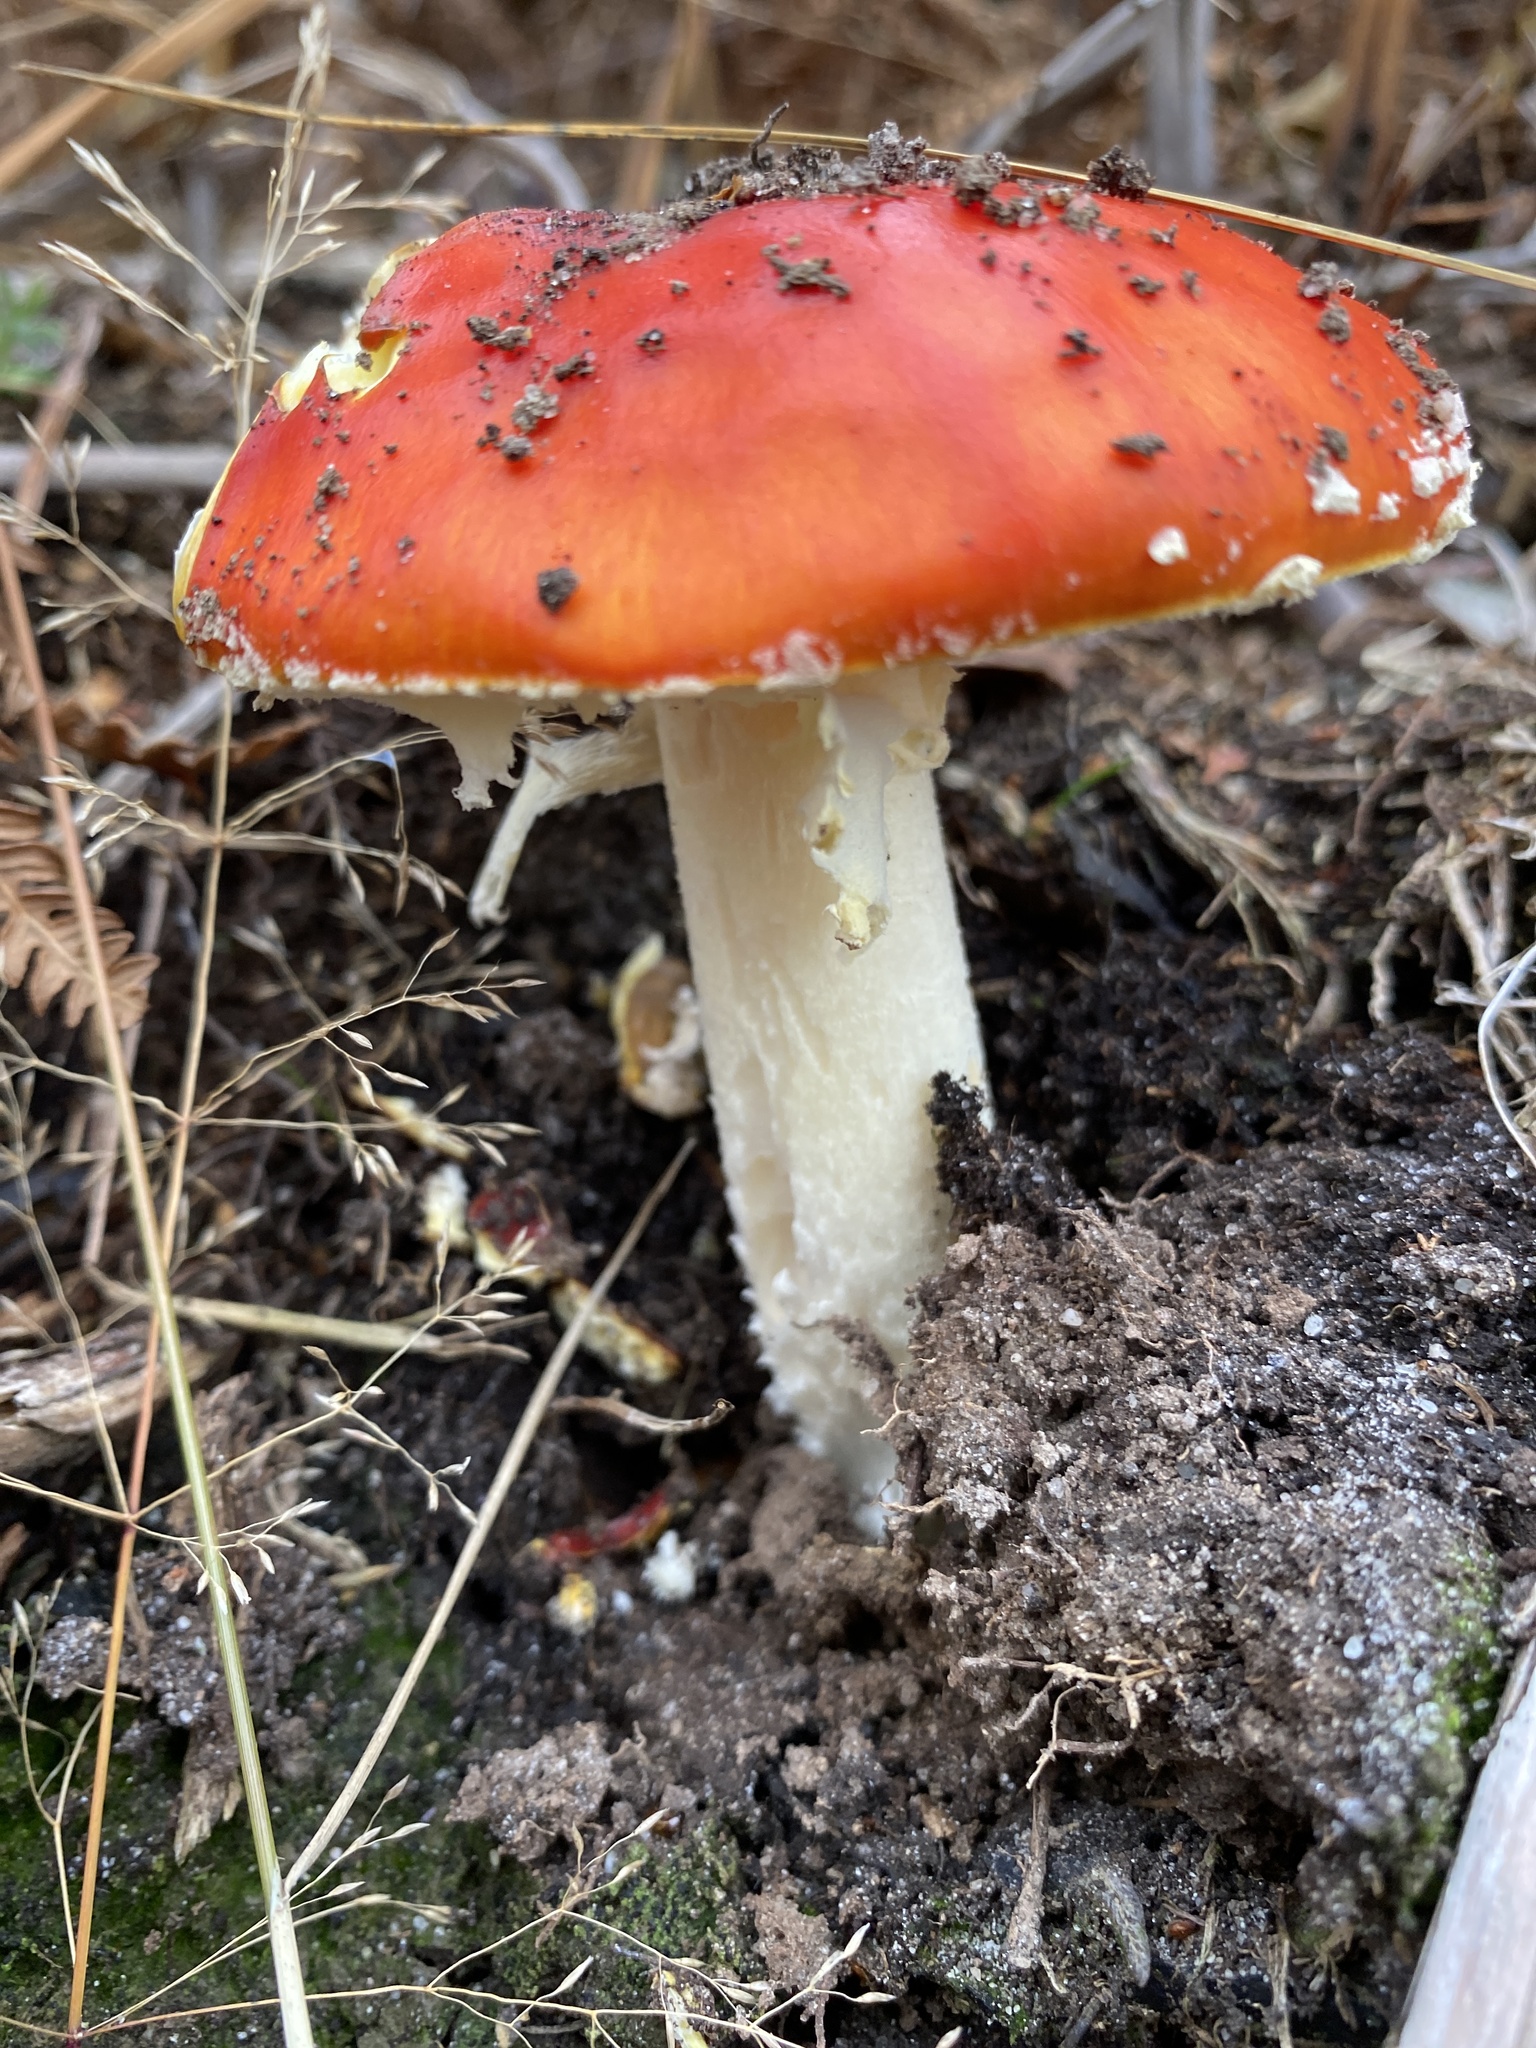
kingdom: Fungi
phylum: Basidiomycota
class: Agaricomycetes
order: Agaricales
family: Amanitaceae
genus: Amanita
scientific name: Amanita muscaria
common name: Fly agaric
